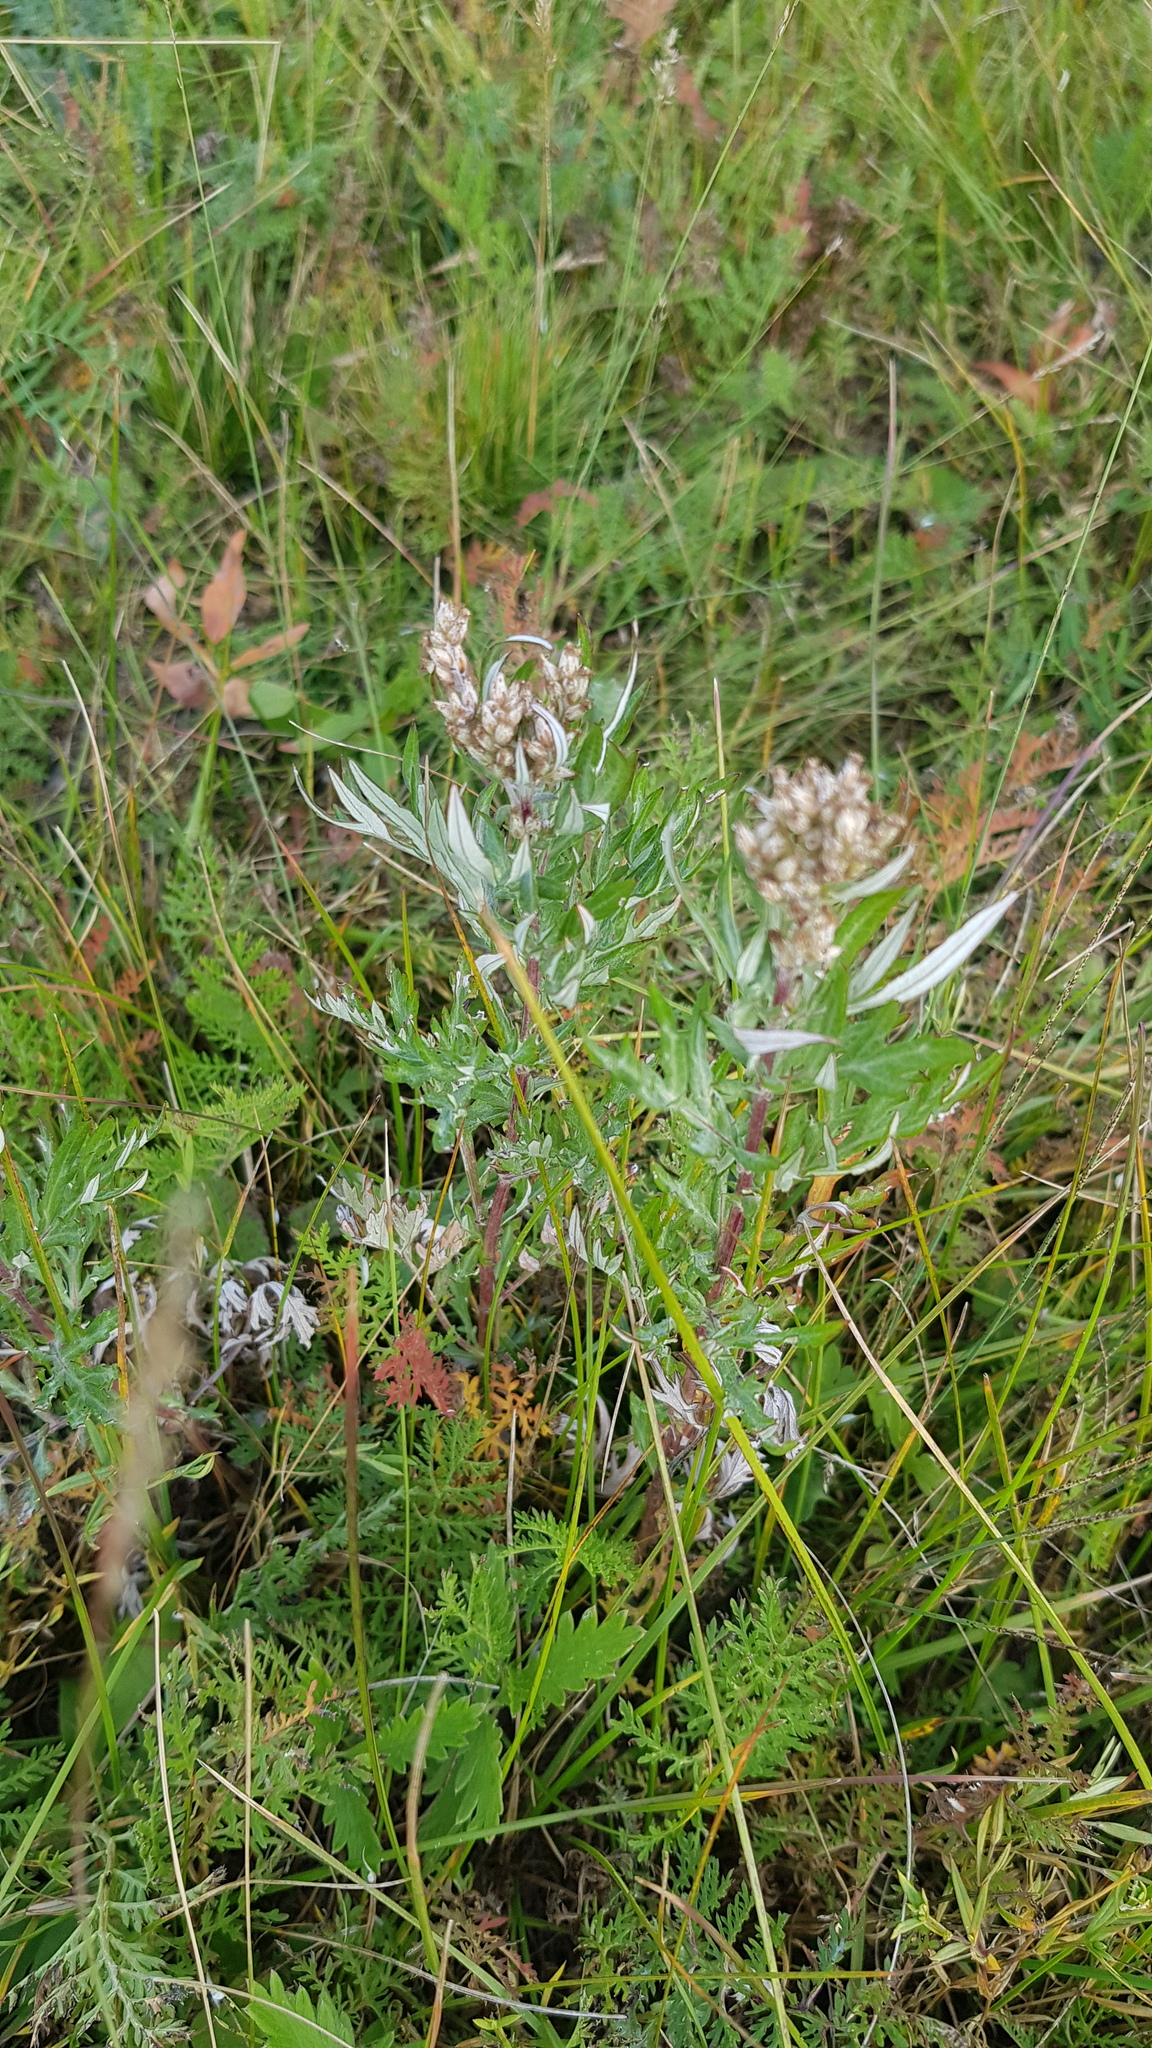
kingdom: Plantae
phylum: Tracheophyta
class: Magnoliopsida
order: Asterales
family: Asteraceae
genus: Artemisia
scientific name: Artemisia vulgaris
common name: Mugwort
